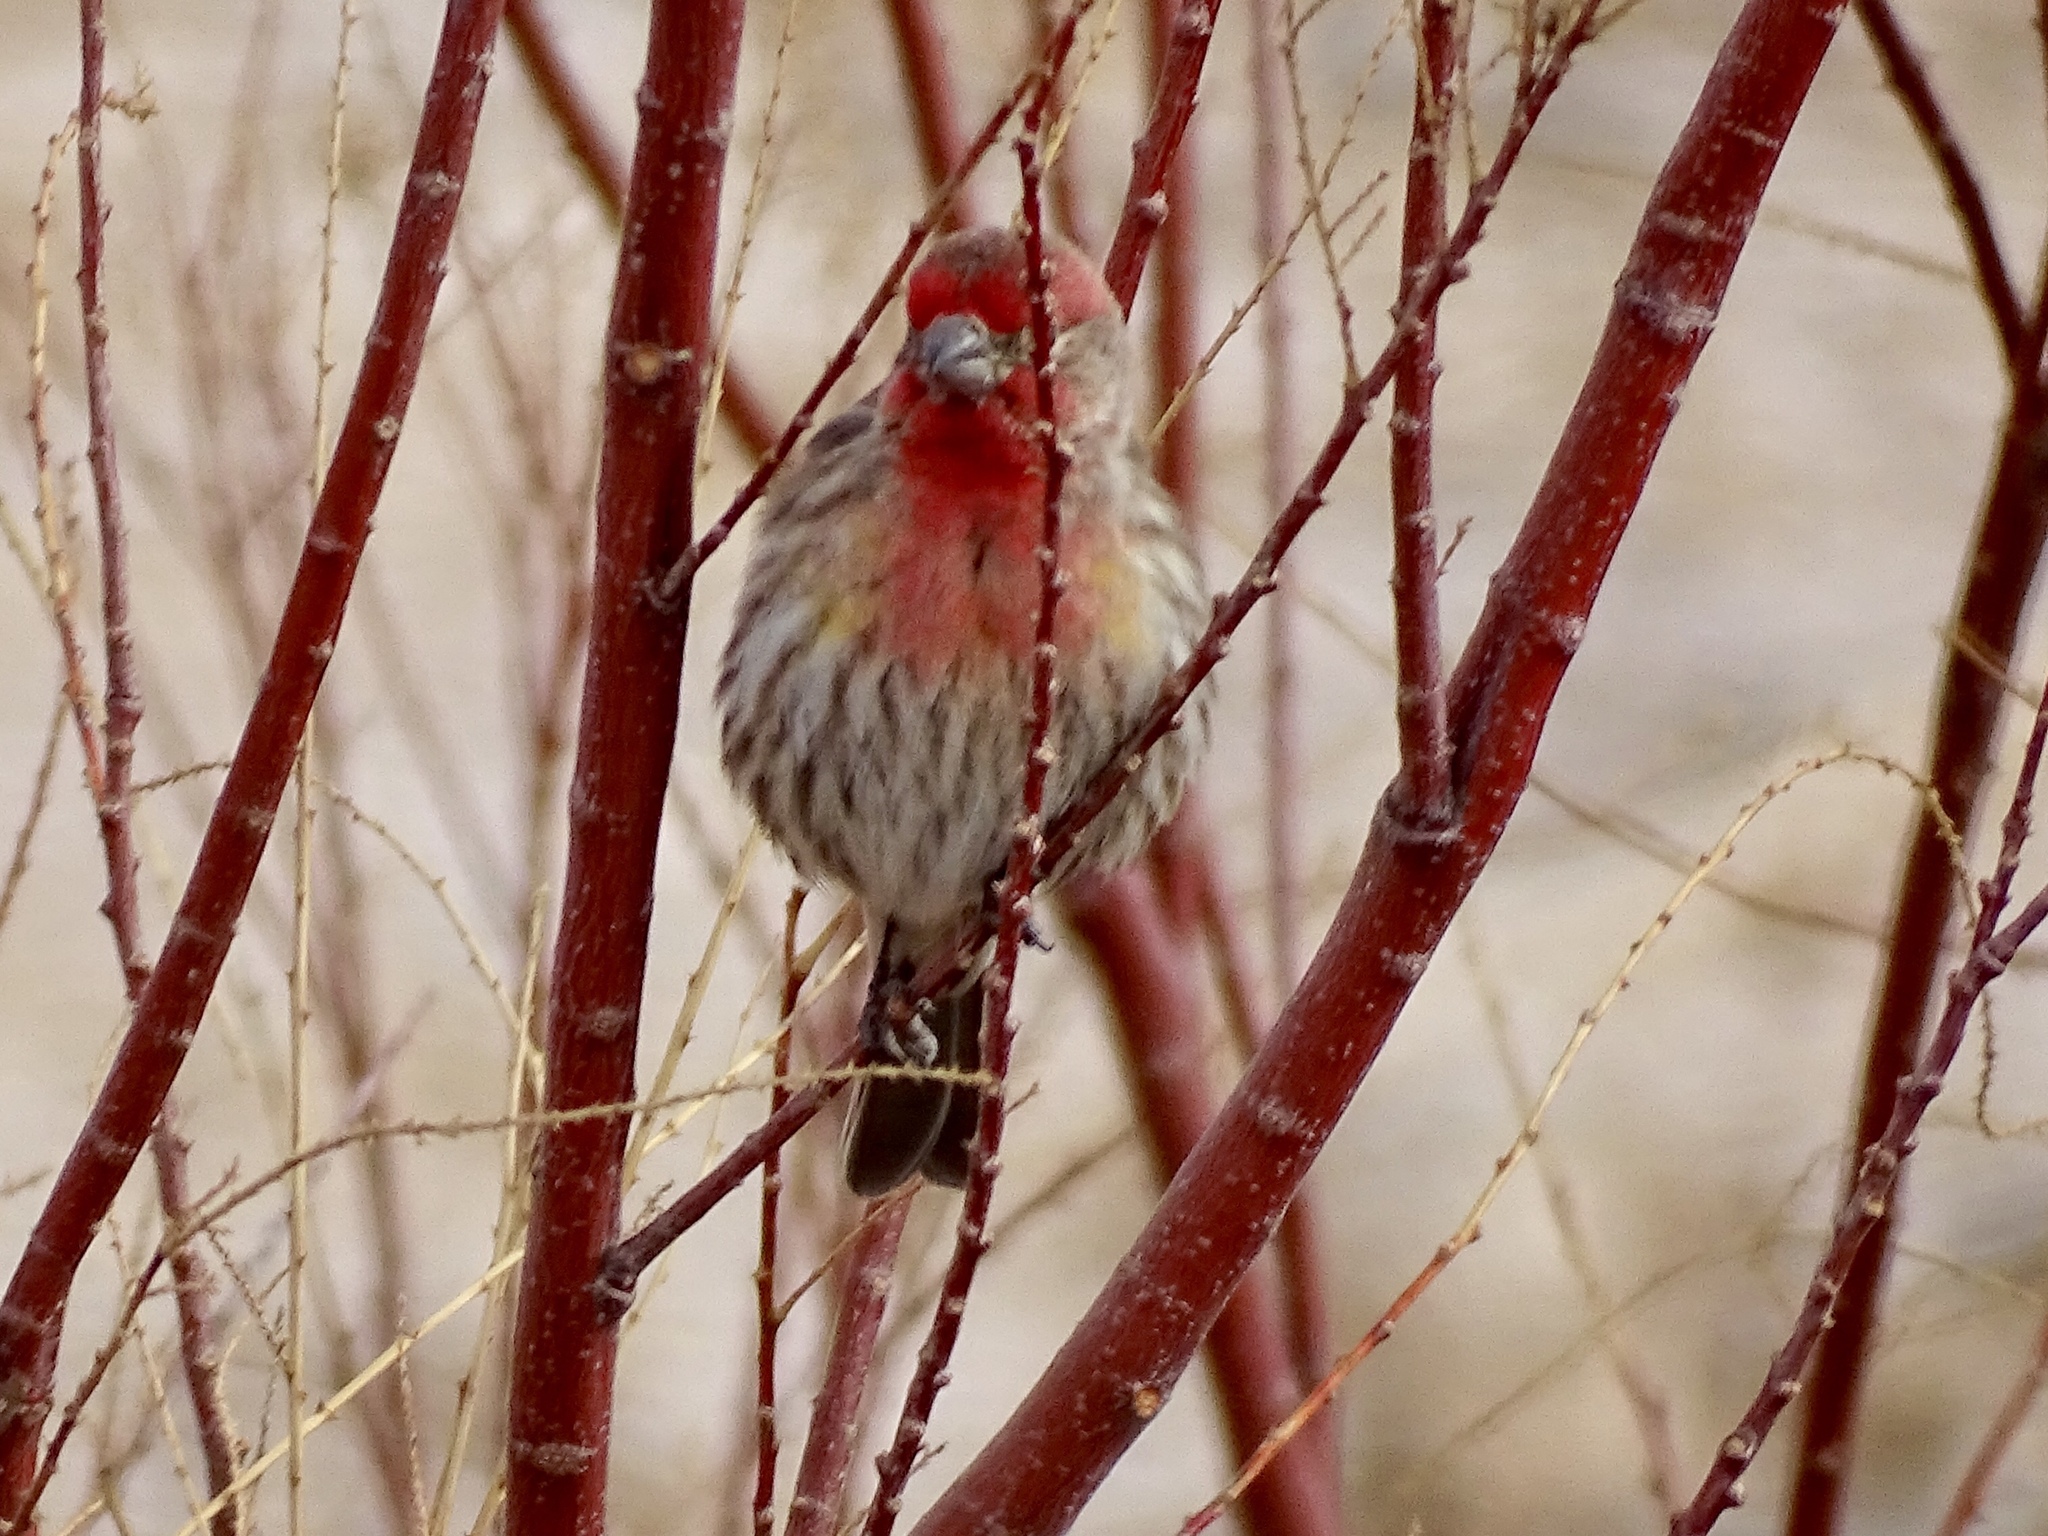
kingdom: Animalia
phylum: Chordata
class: Aves
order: Passeriformes
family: Fringillidae
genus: Haemorhous
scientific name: Haemorhous mexicanus
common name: House finch
